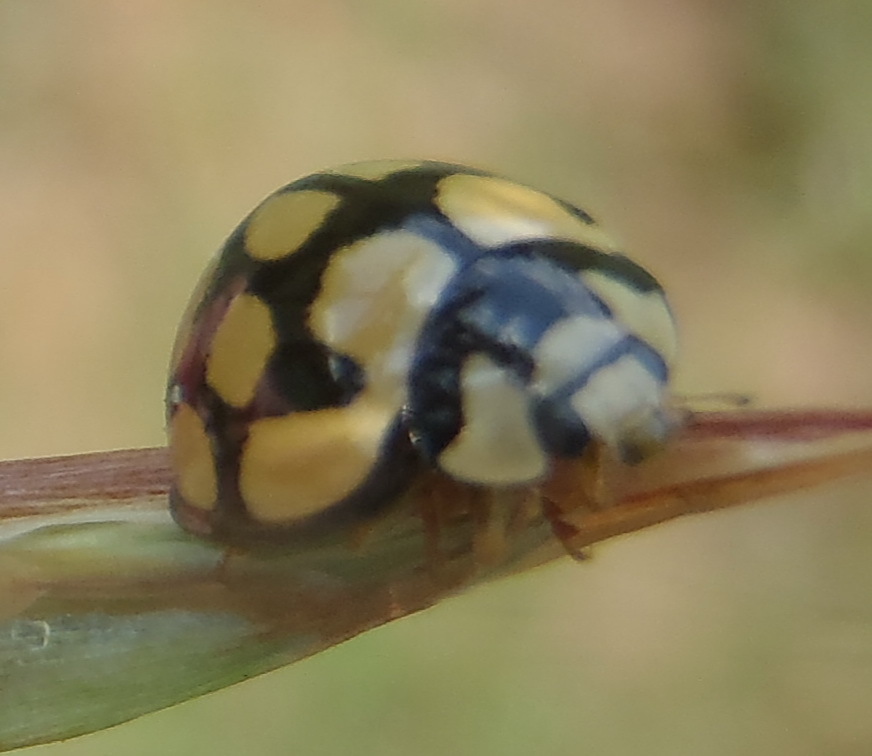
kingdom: Animalia
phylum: Arthropoda
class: Insecta
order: Coleoptera
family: Coccinellidae
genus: Cheilomenes
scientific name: Cheilomenes lunata
